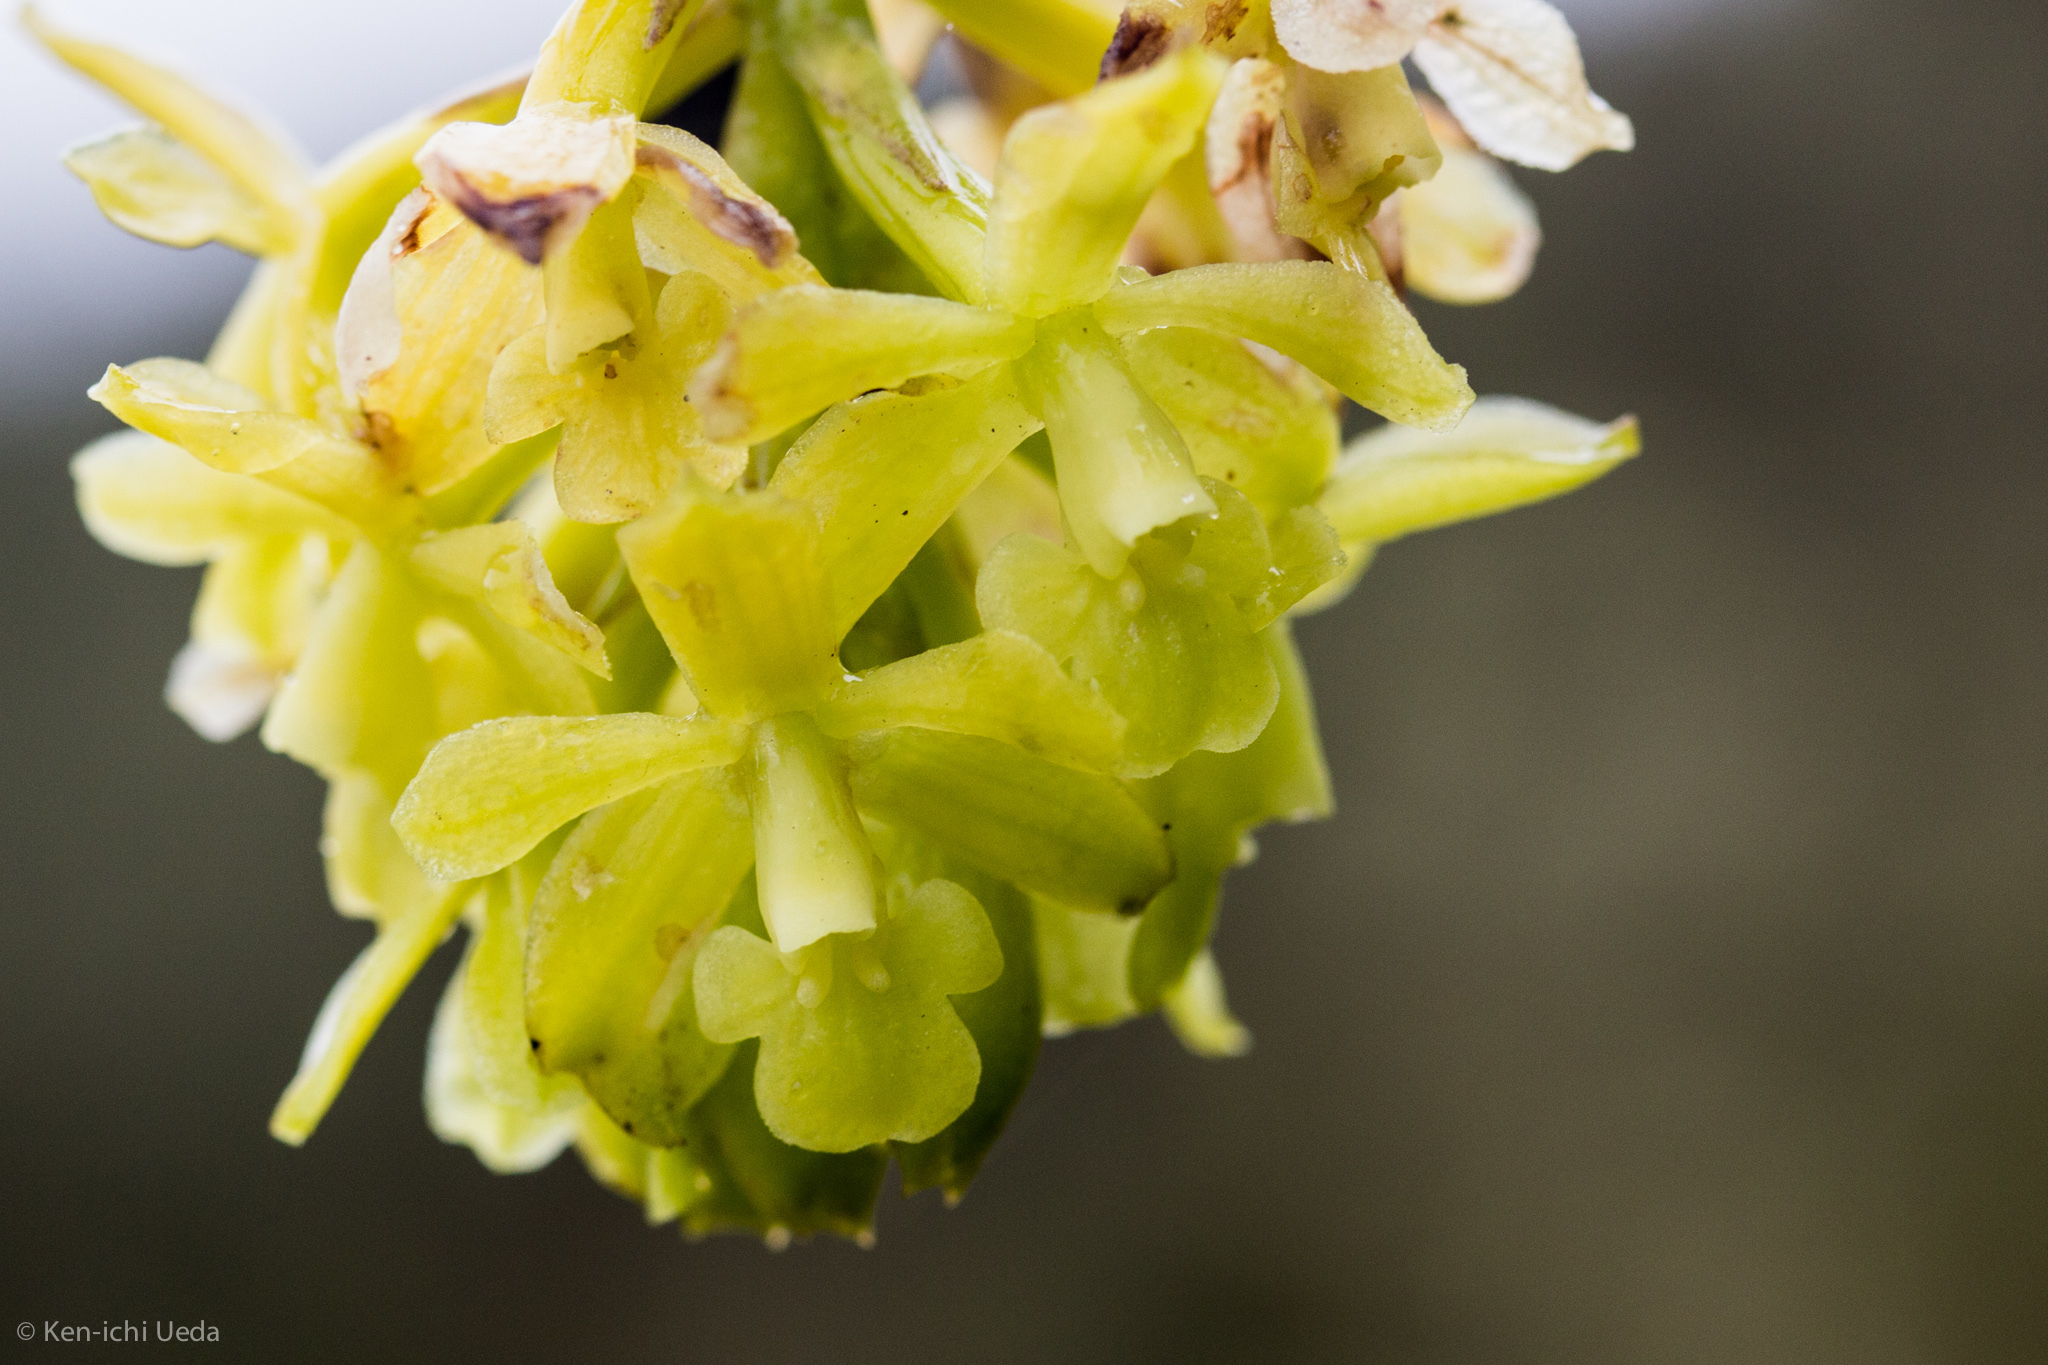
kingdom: Plantae
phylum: Tracheophyta
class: Liliopsida
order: Asparagales
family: Orchidaceae
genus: Epidendrum
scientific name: Epidendrum zipaquiranum
